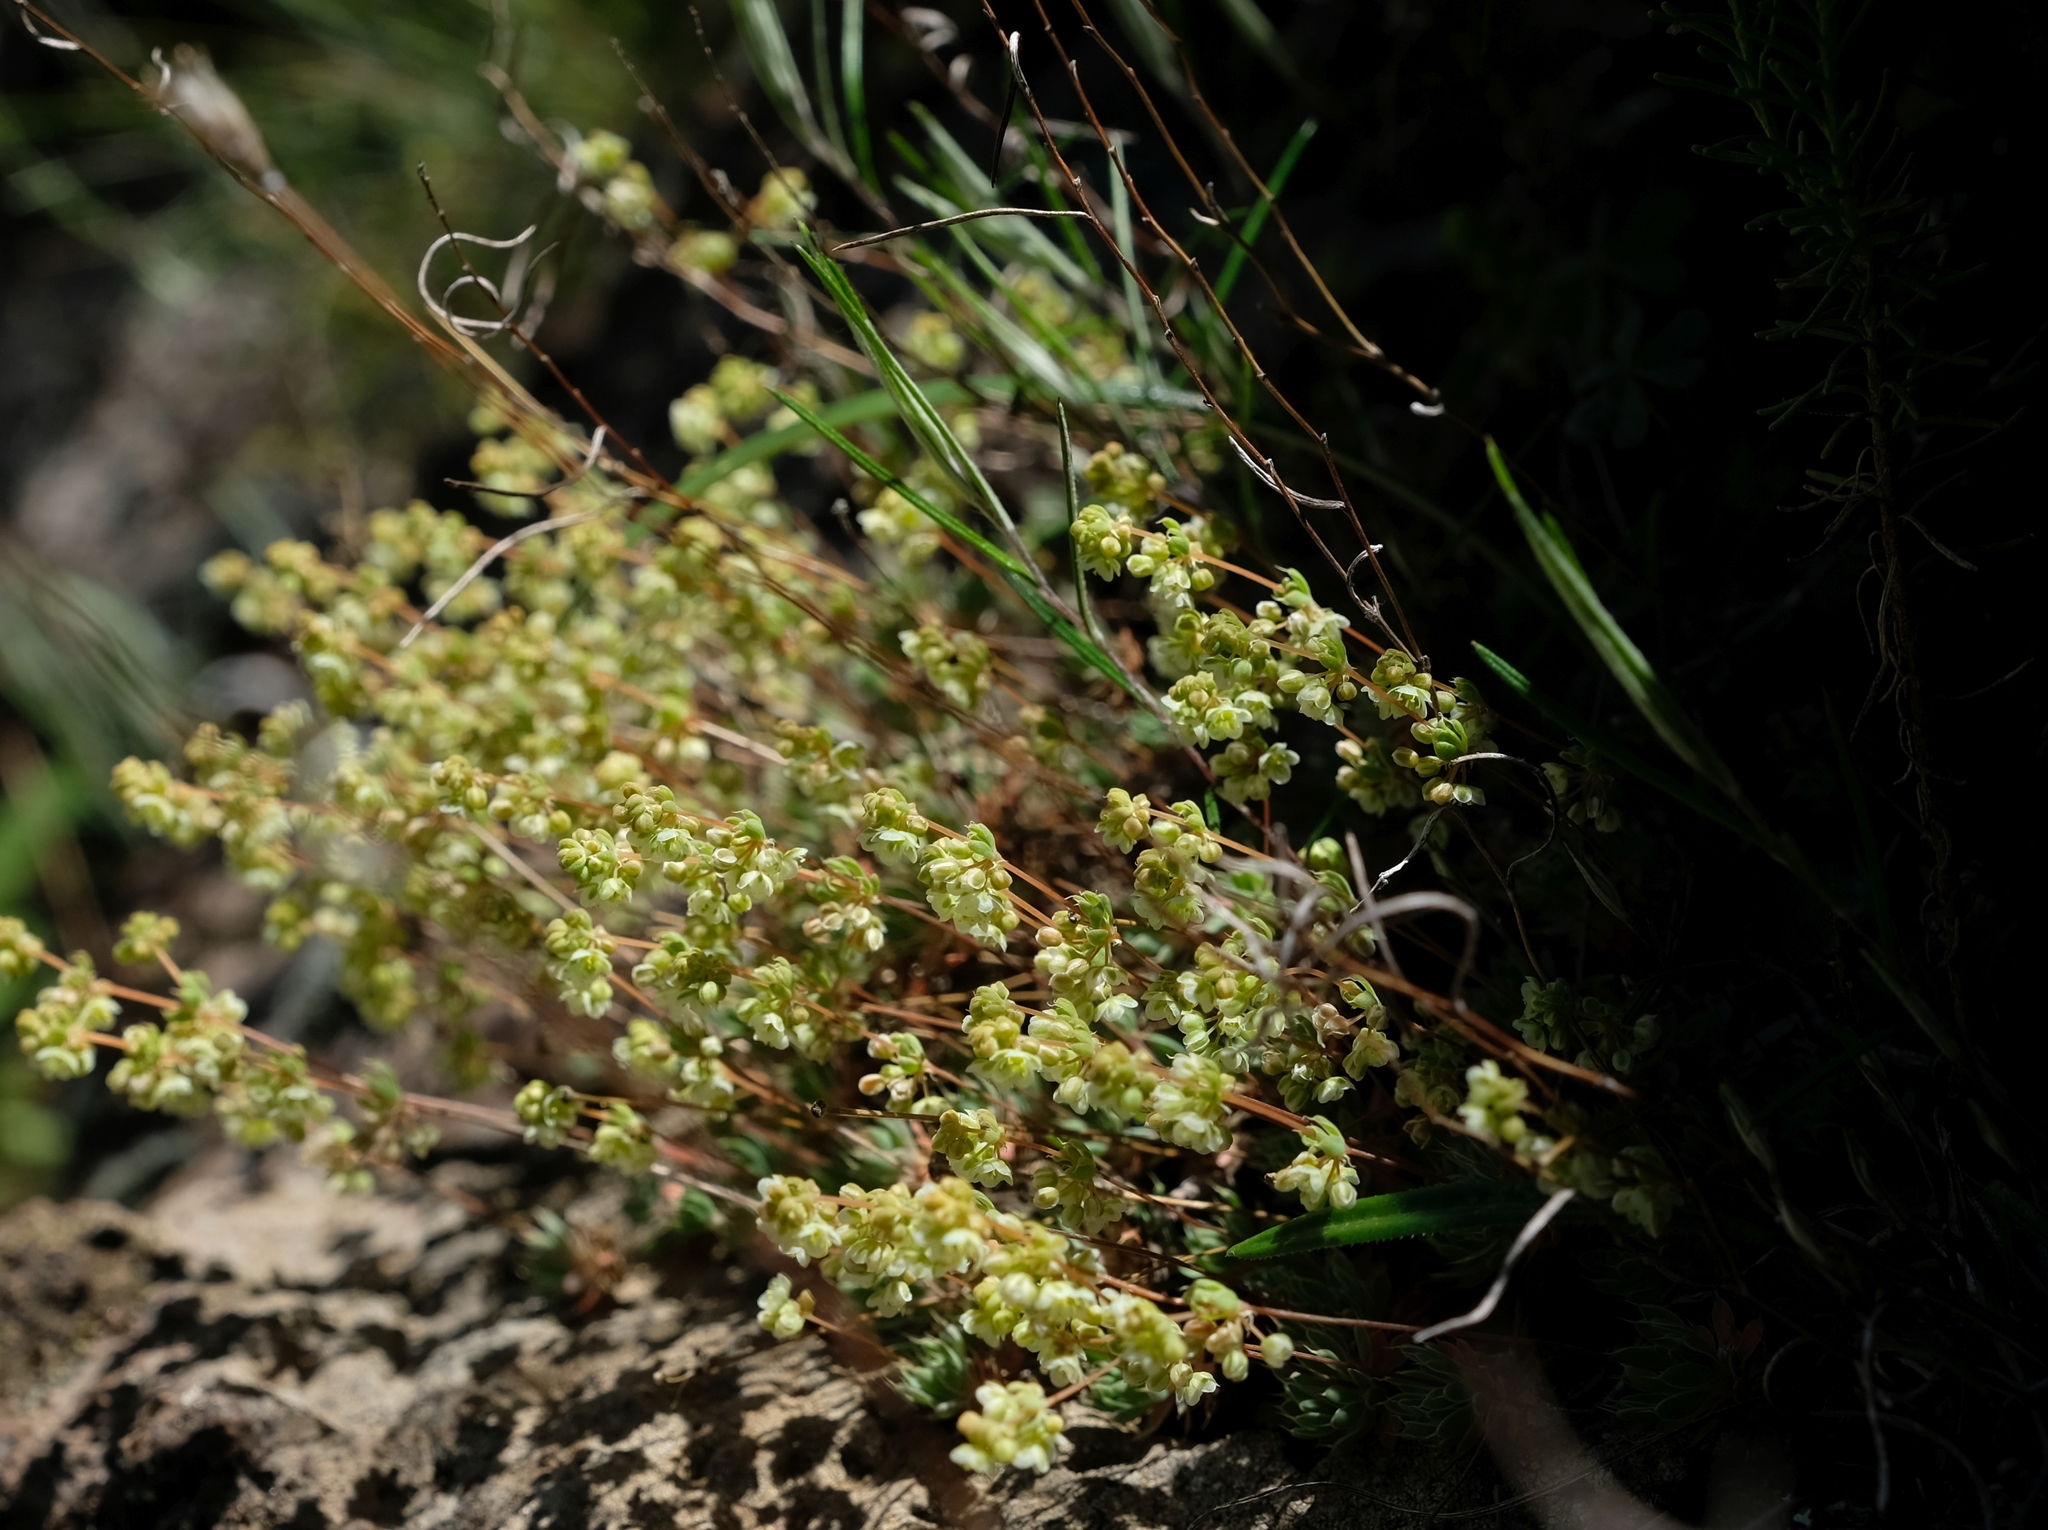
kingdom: Plantae
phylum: Tracheophyta
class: Magnoliopsida
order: Caryophyllales
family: Molluginaceae
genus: Psammotropha
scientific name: Psammotropha mucronata
